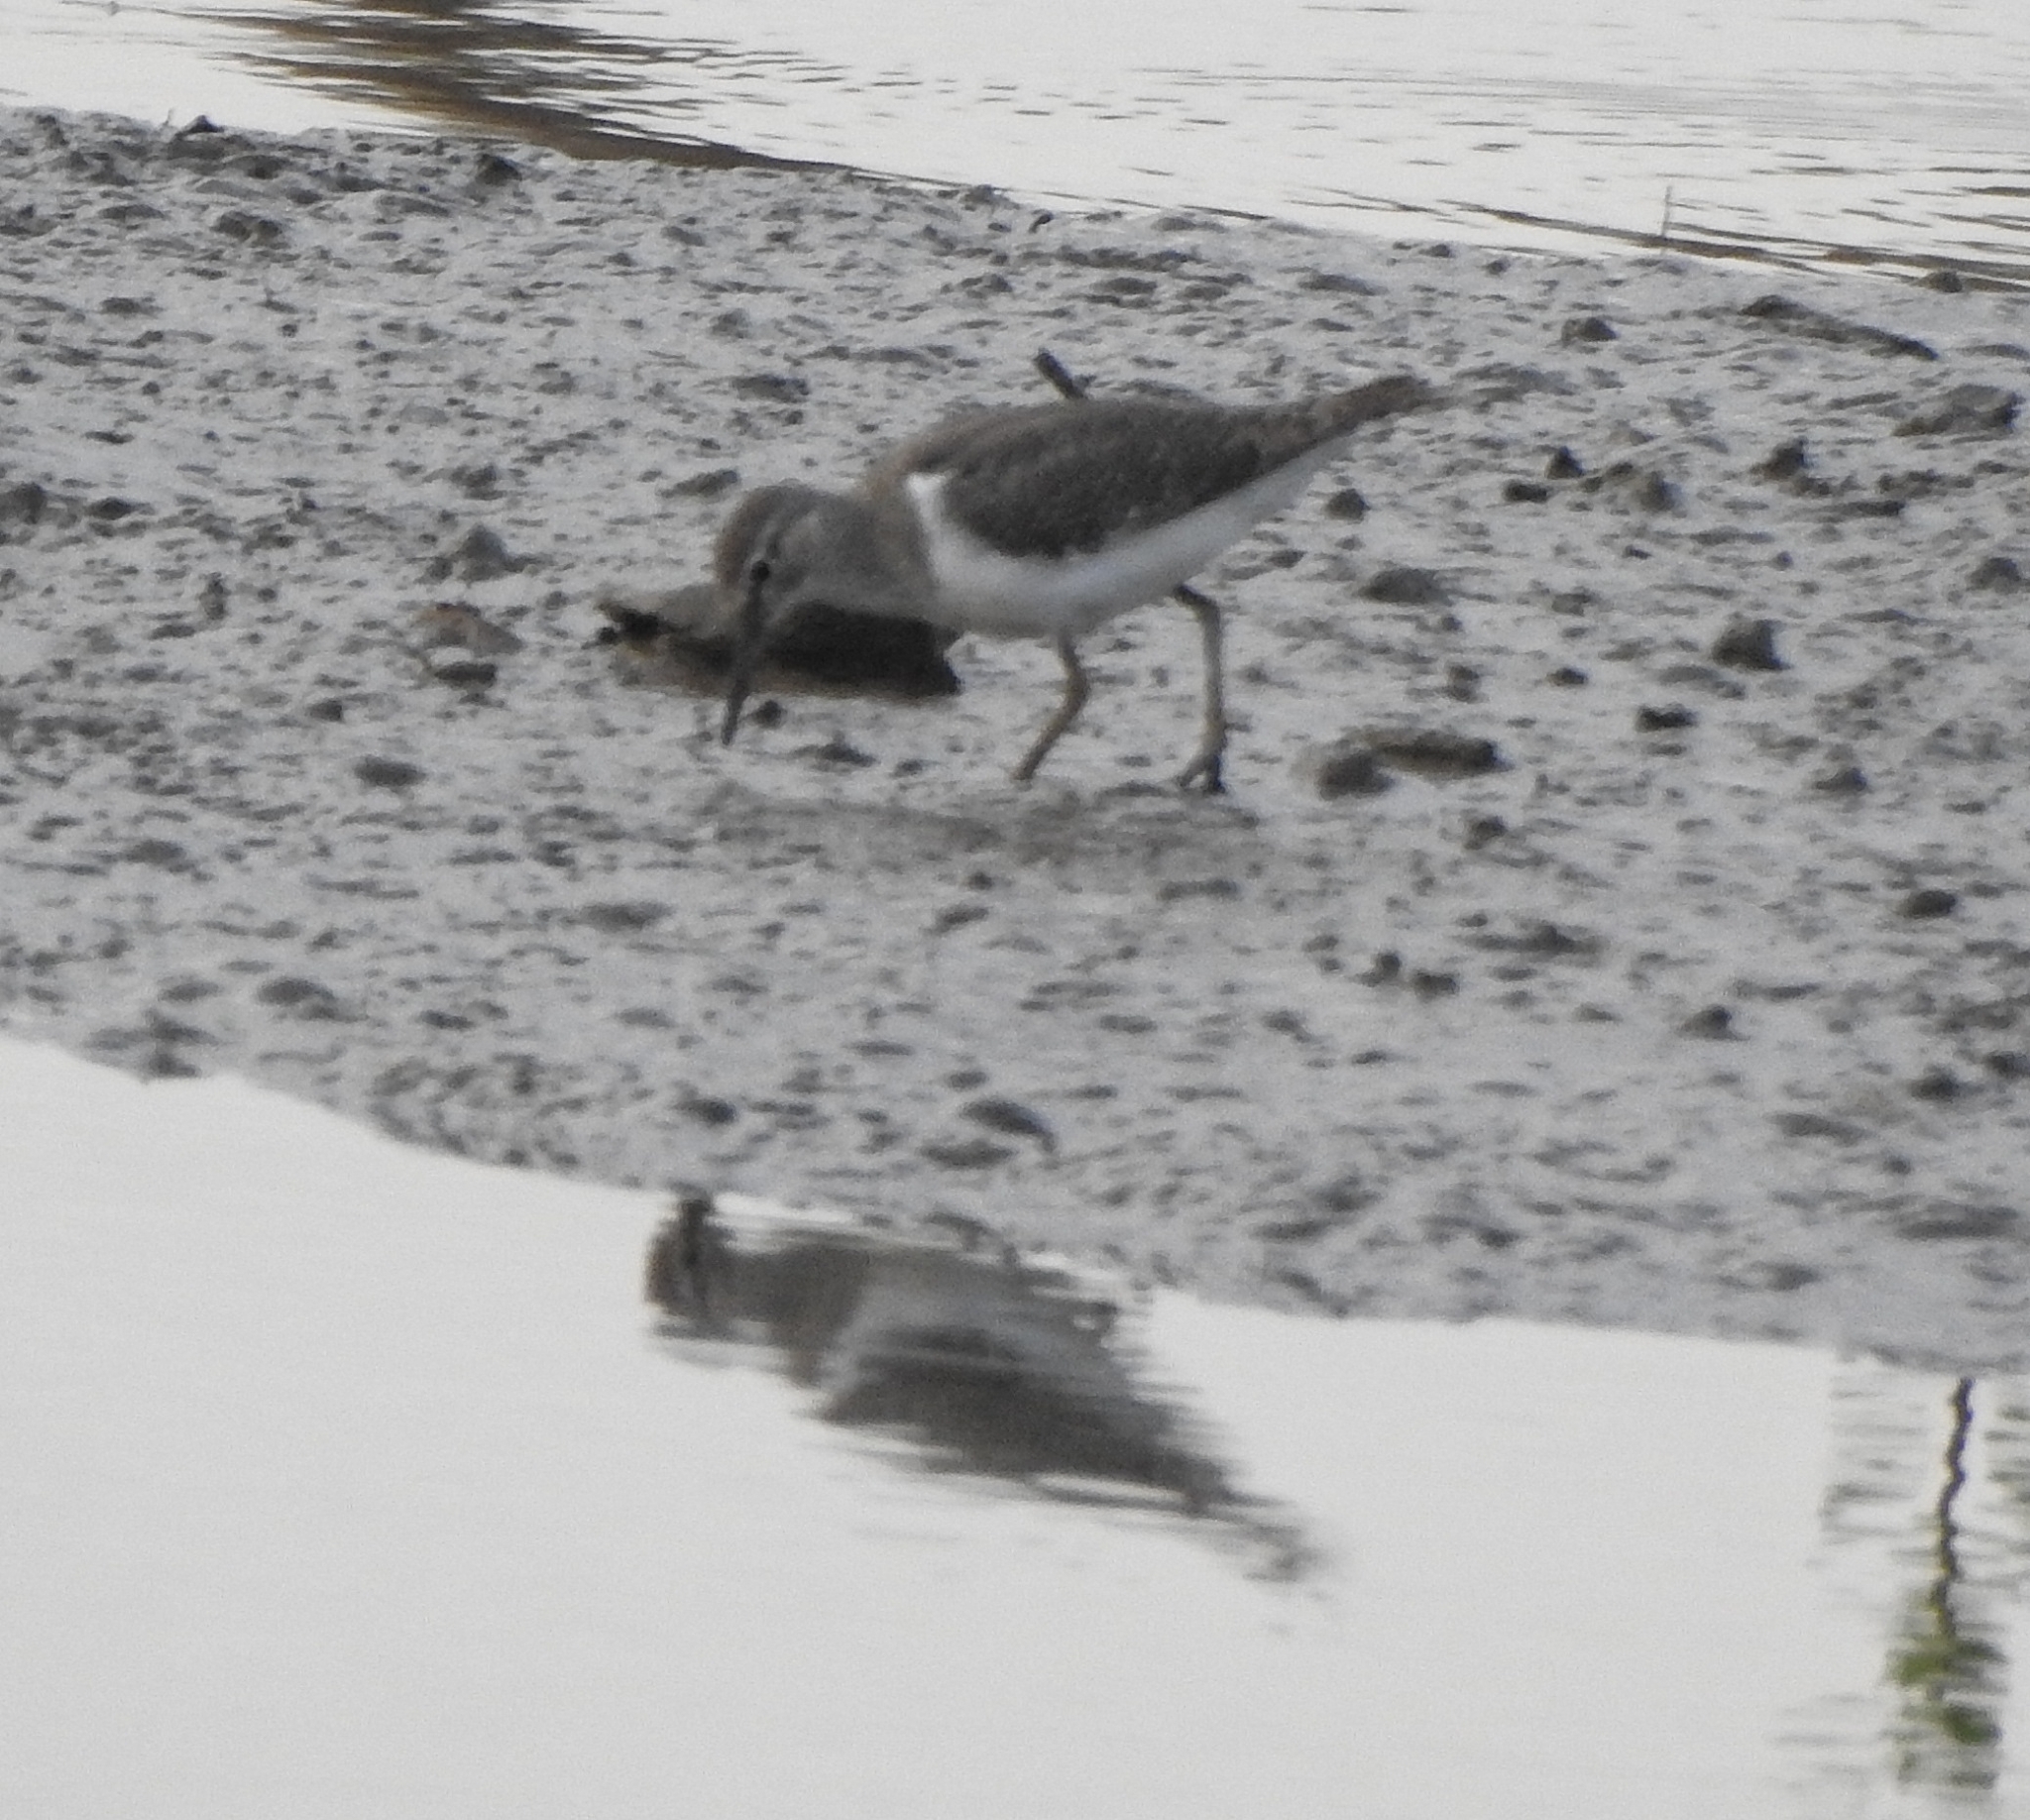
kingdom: Animalia
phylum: Chordata
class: Aves
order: Charadriiformes
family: Scolopacidae
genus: Actitis
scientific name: Actitis hypoleucos
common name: Common sandpiper
